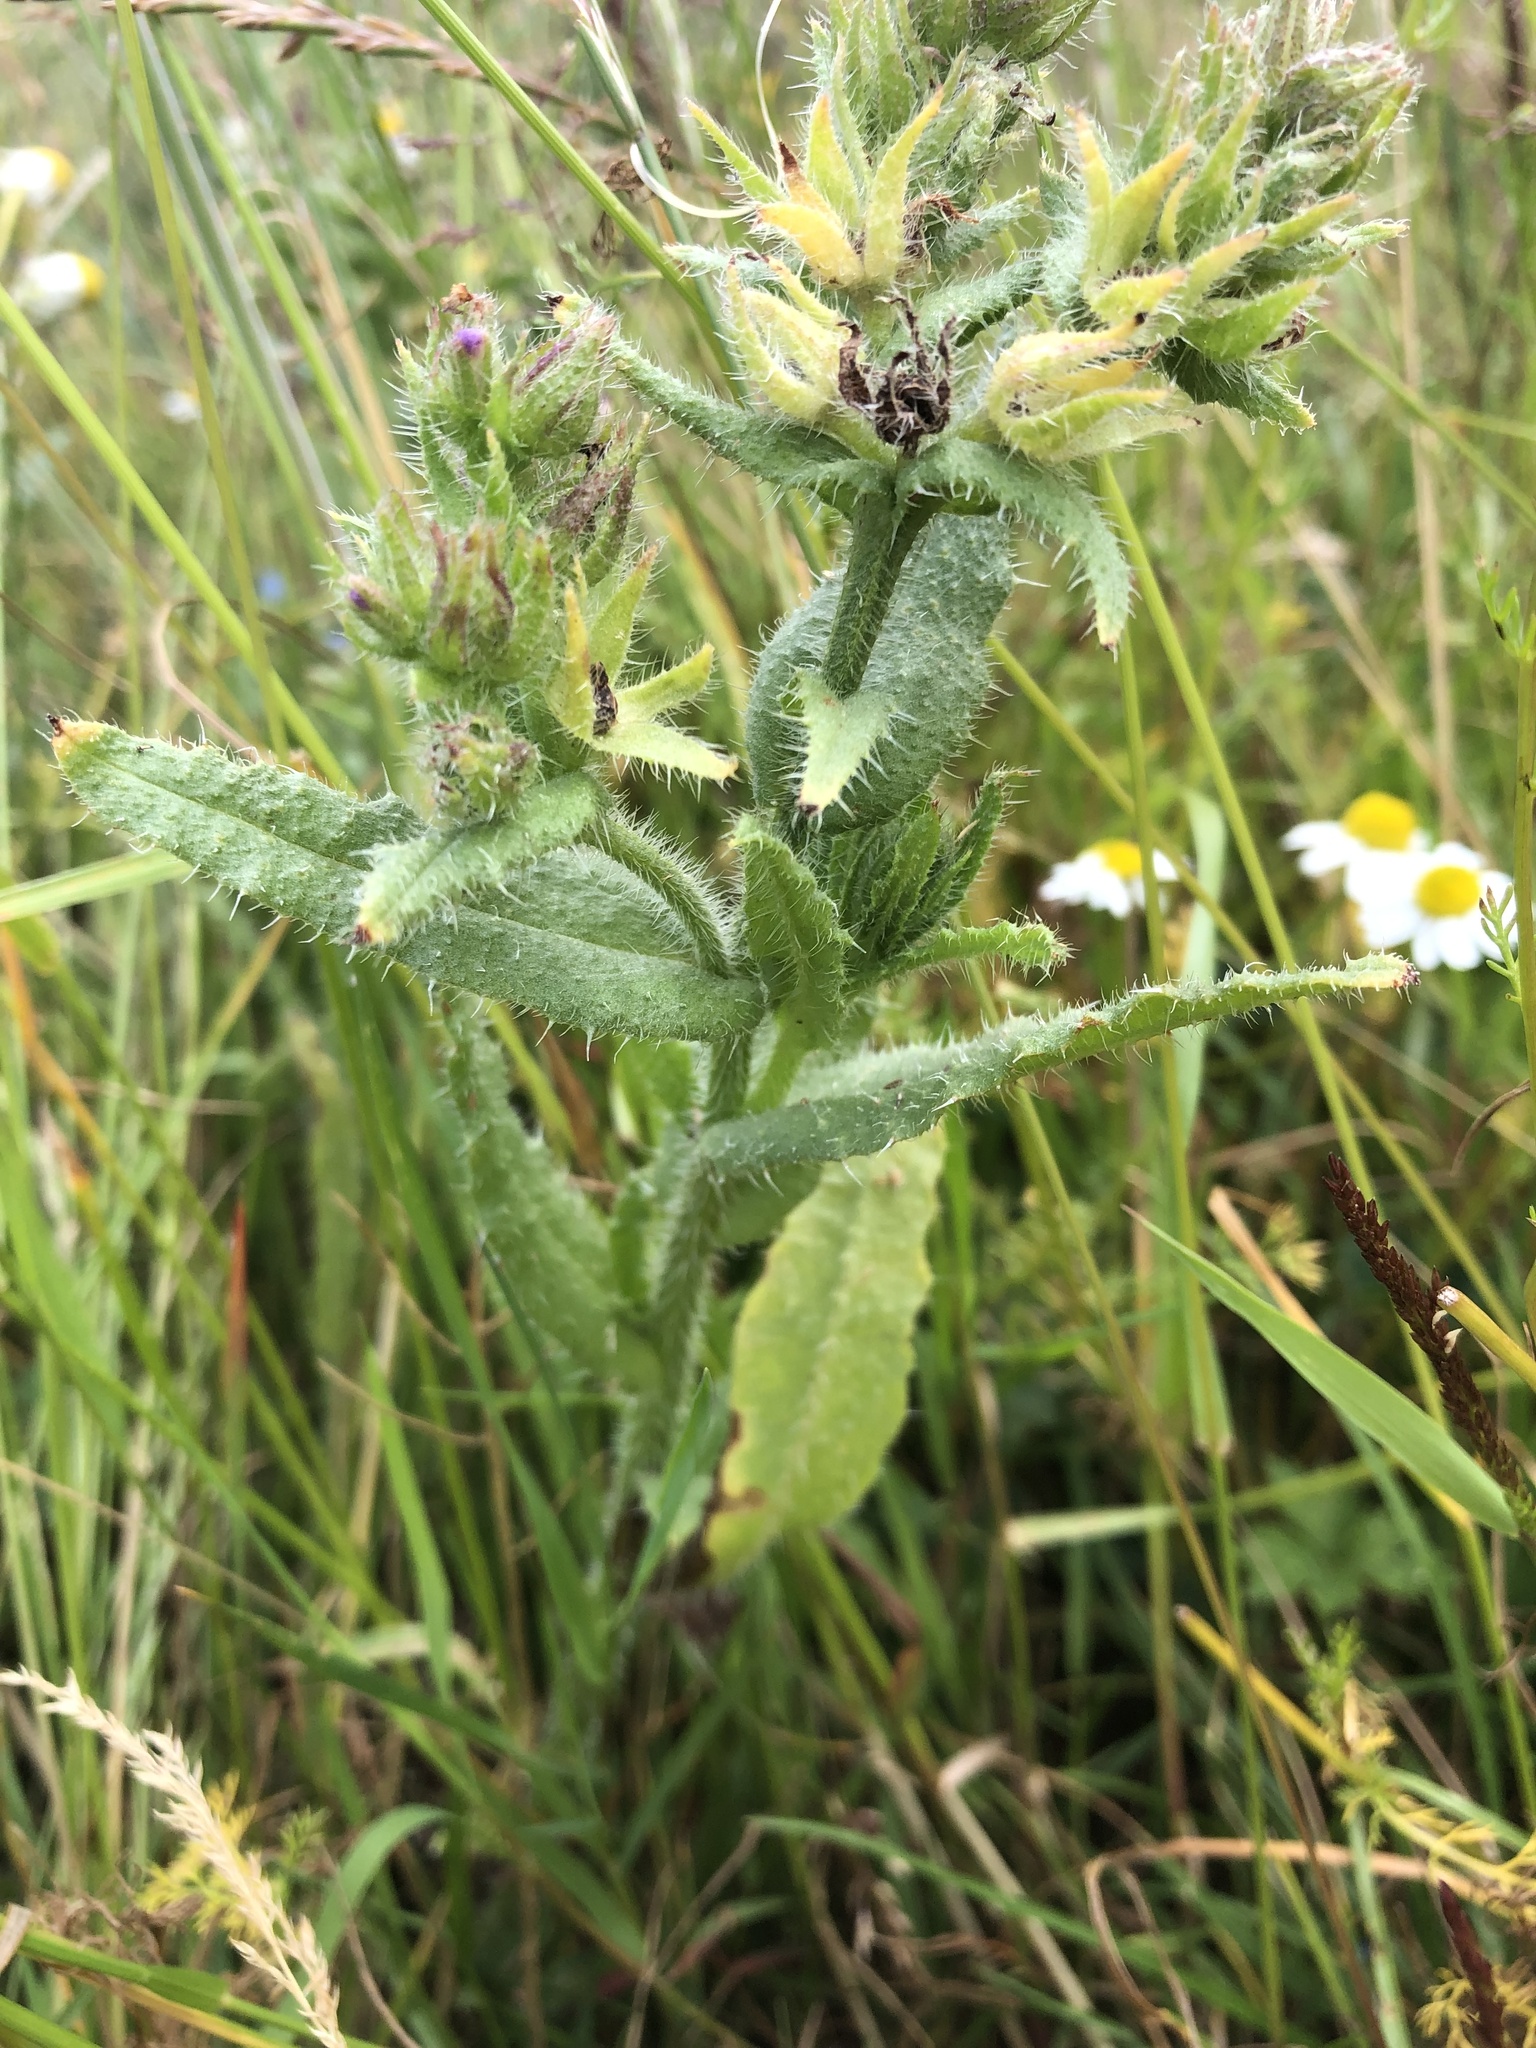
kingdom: Plantae
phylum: Tracheophyta
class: Magnoliopsida
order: Boraginales
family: Boraginaceae
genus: Lycopsis
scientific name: Lycopsis arvensis
